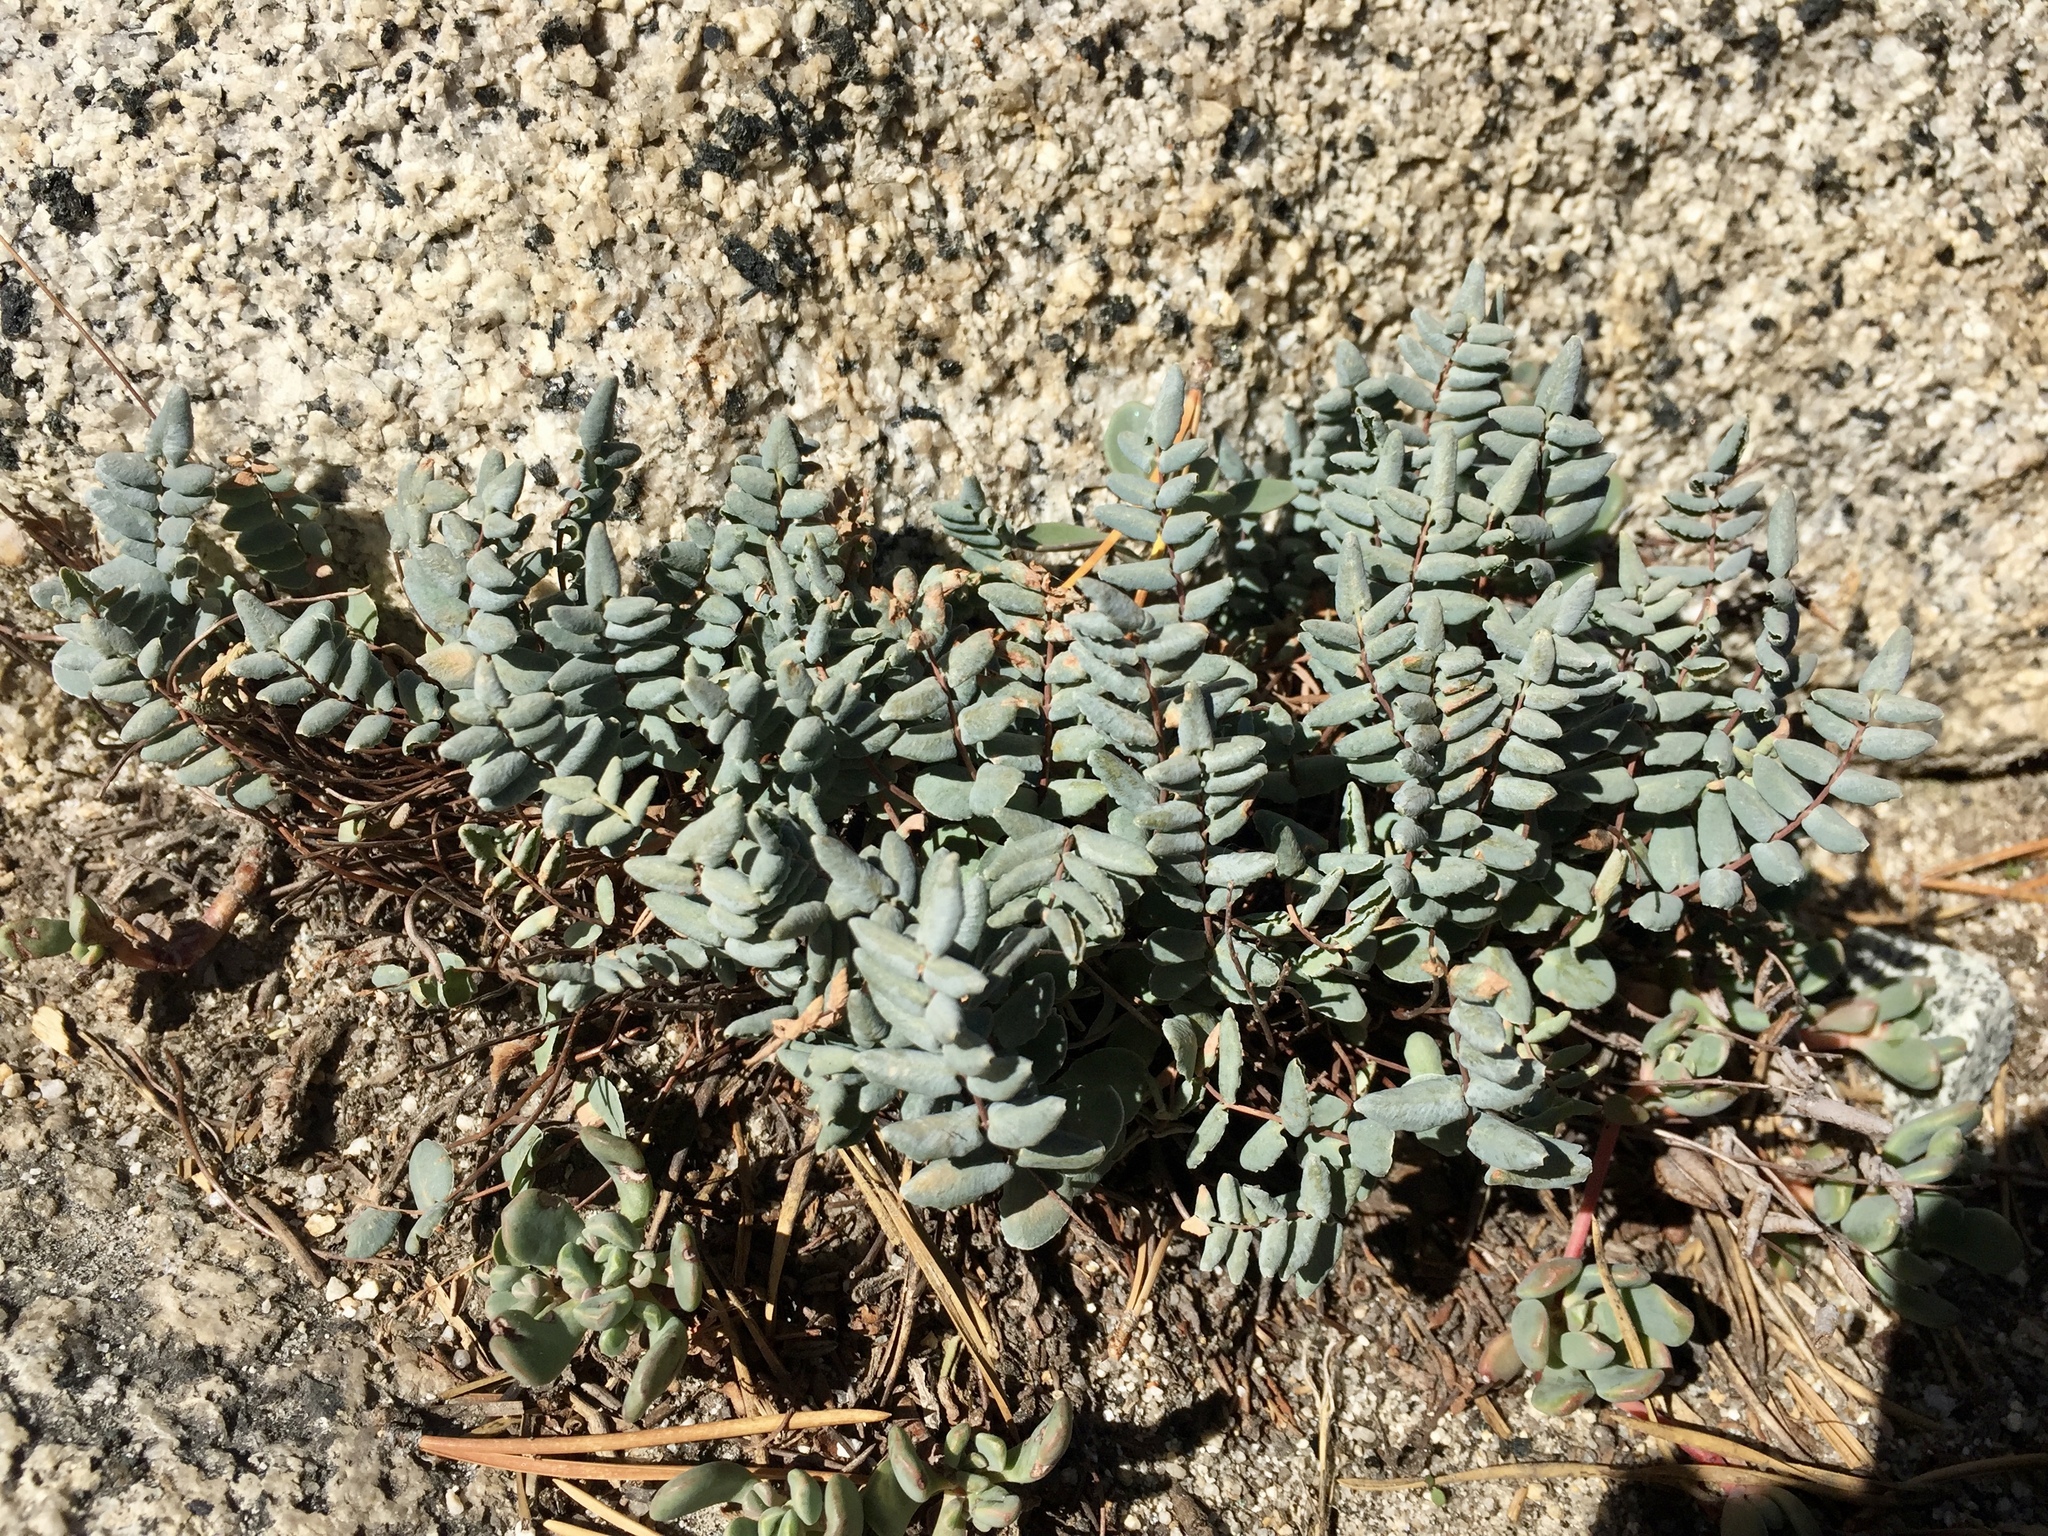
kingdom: Plantae
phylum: Tracheophyta
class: Polypodiopsida
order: Polypodiales
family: Pteridaceae
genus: Pellaea
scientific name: Pellaea bridgesii
